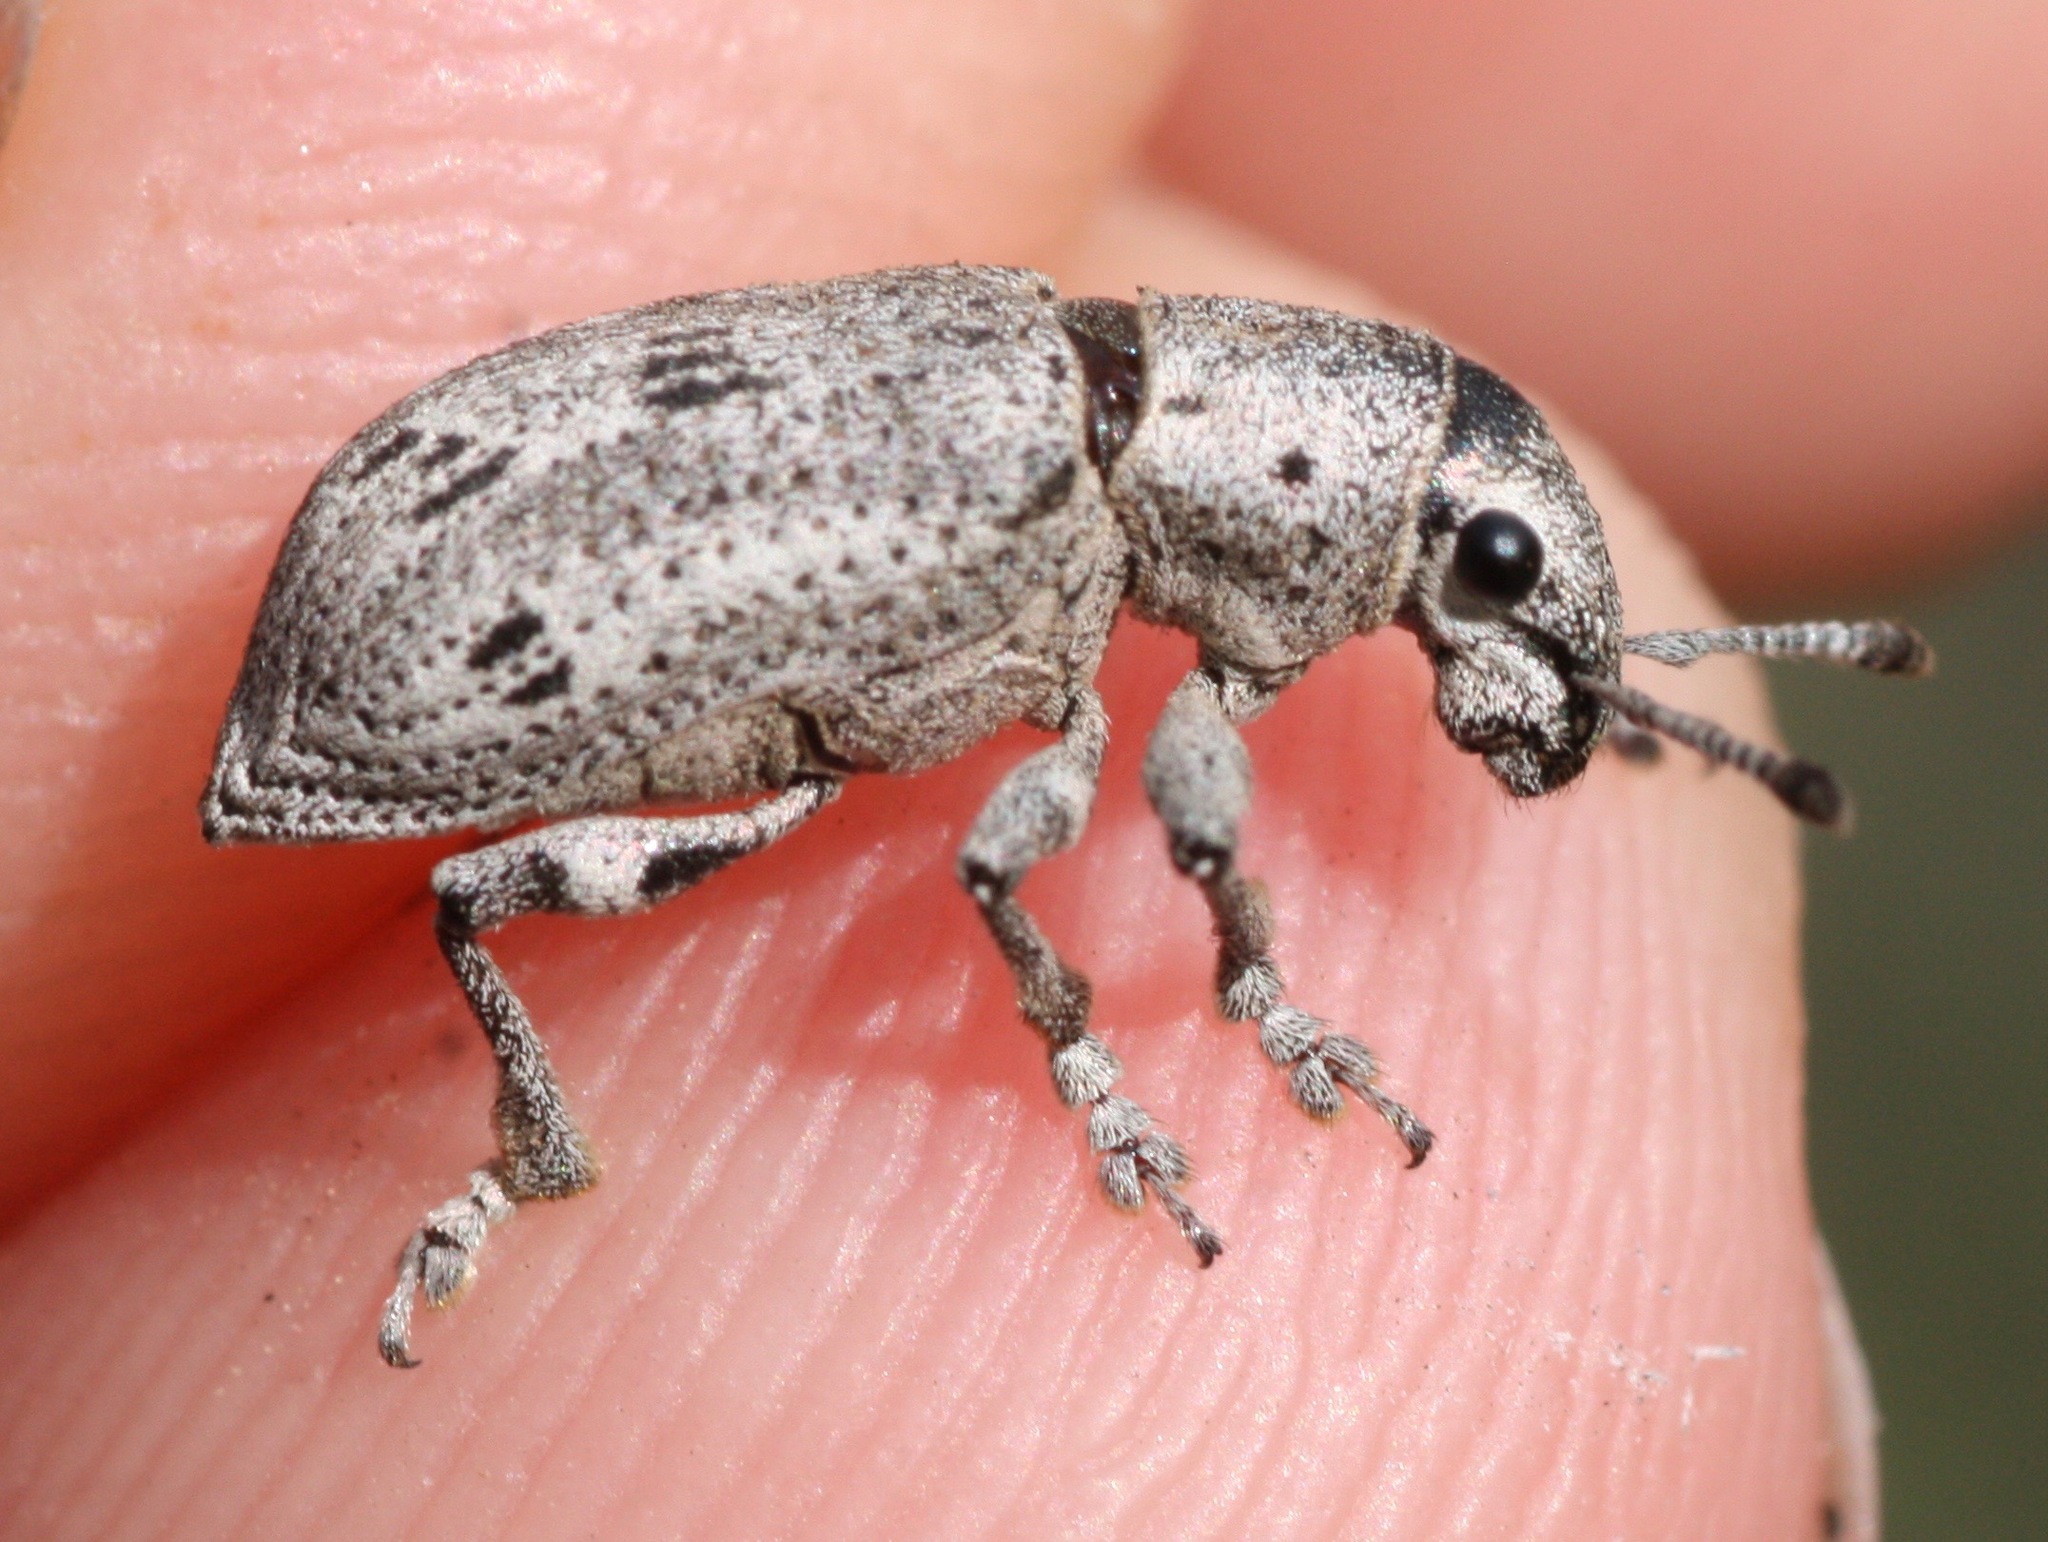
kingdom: Animalia
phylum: Arthropoda
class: Insecta
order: Coleoptera
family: Curculionidae
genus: Ericydeus
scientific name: Ericydeus lautus
